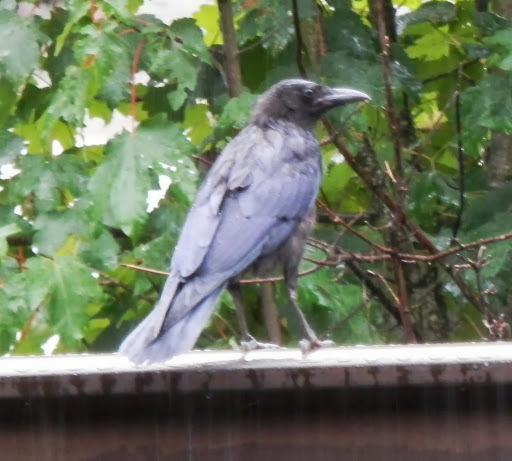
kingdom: Animalia
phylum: Chordata
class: Aves
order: Passeriformes
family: Corvidae
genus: Corvus
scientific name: Corvus brachyrhynchos
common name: American crow
